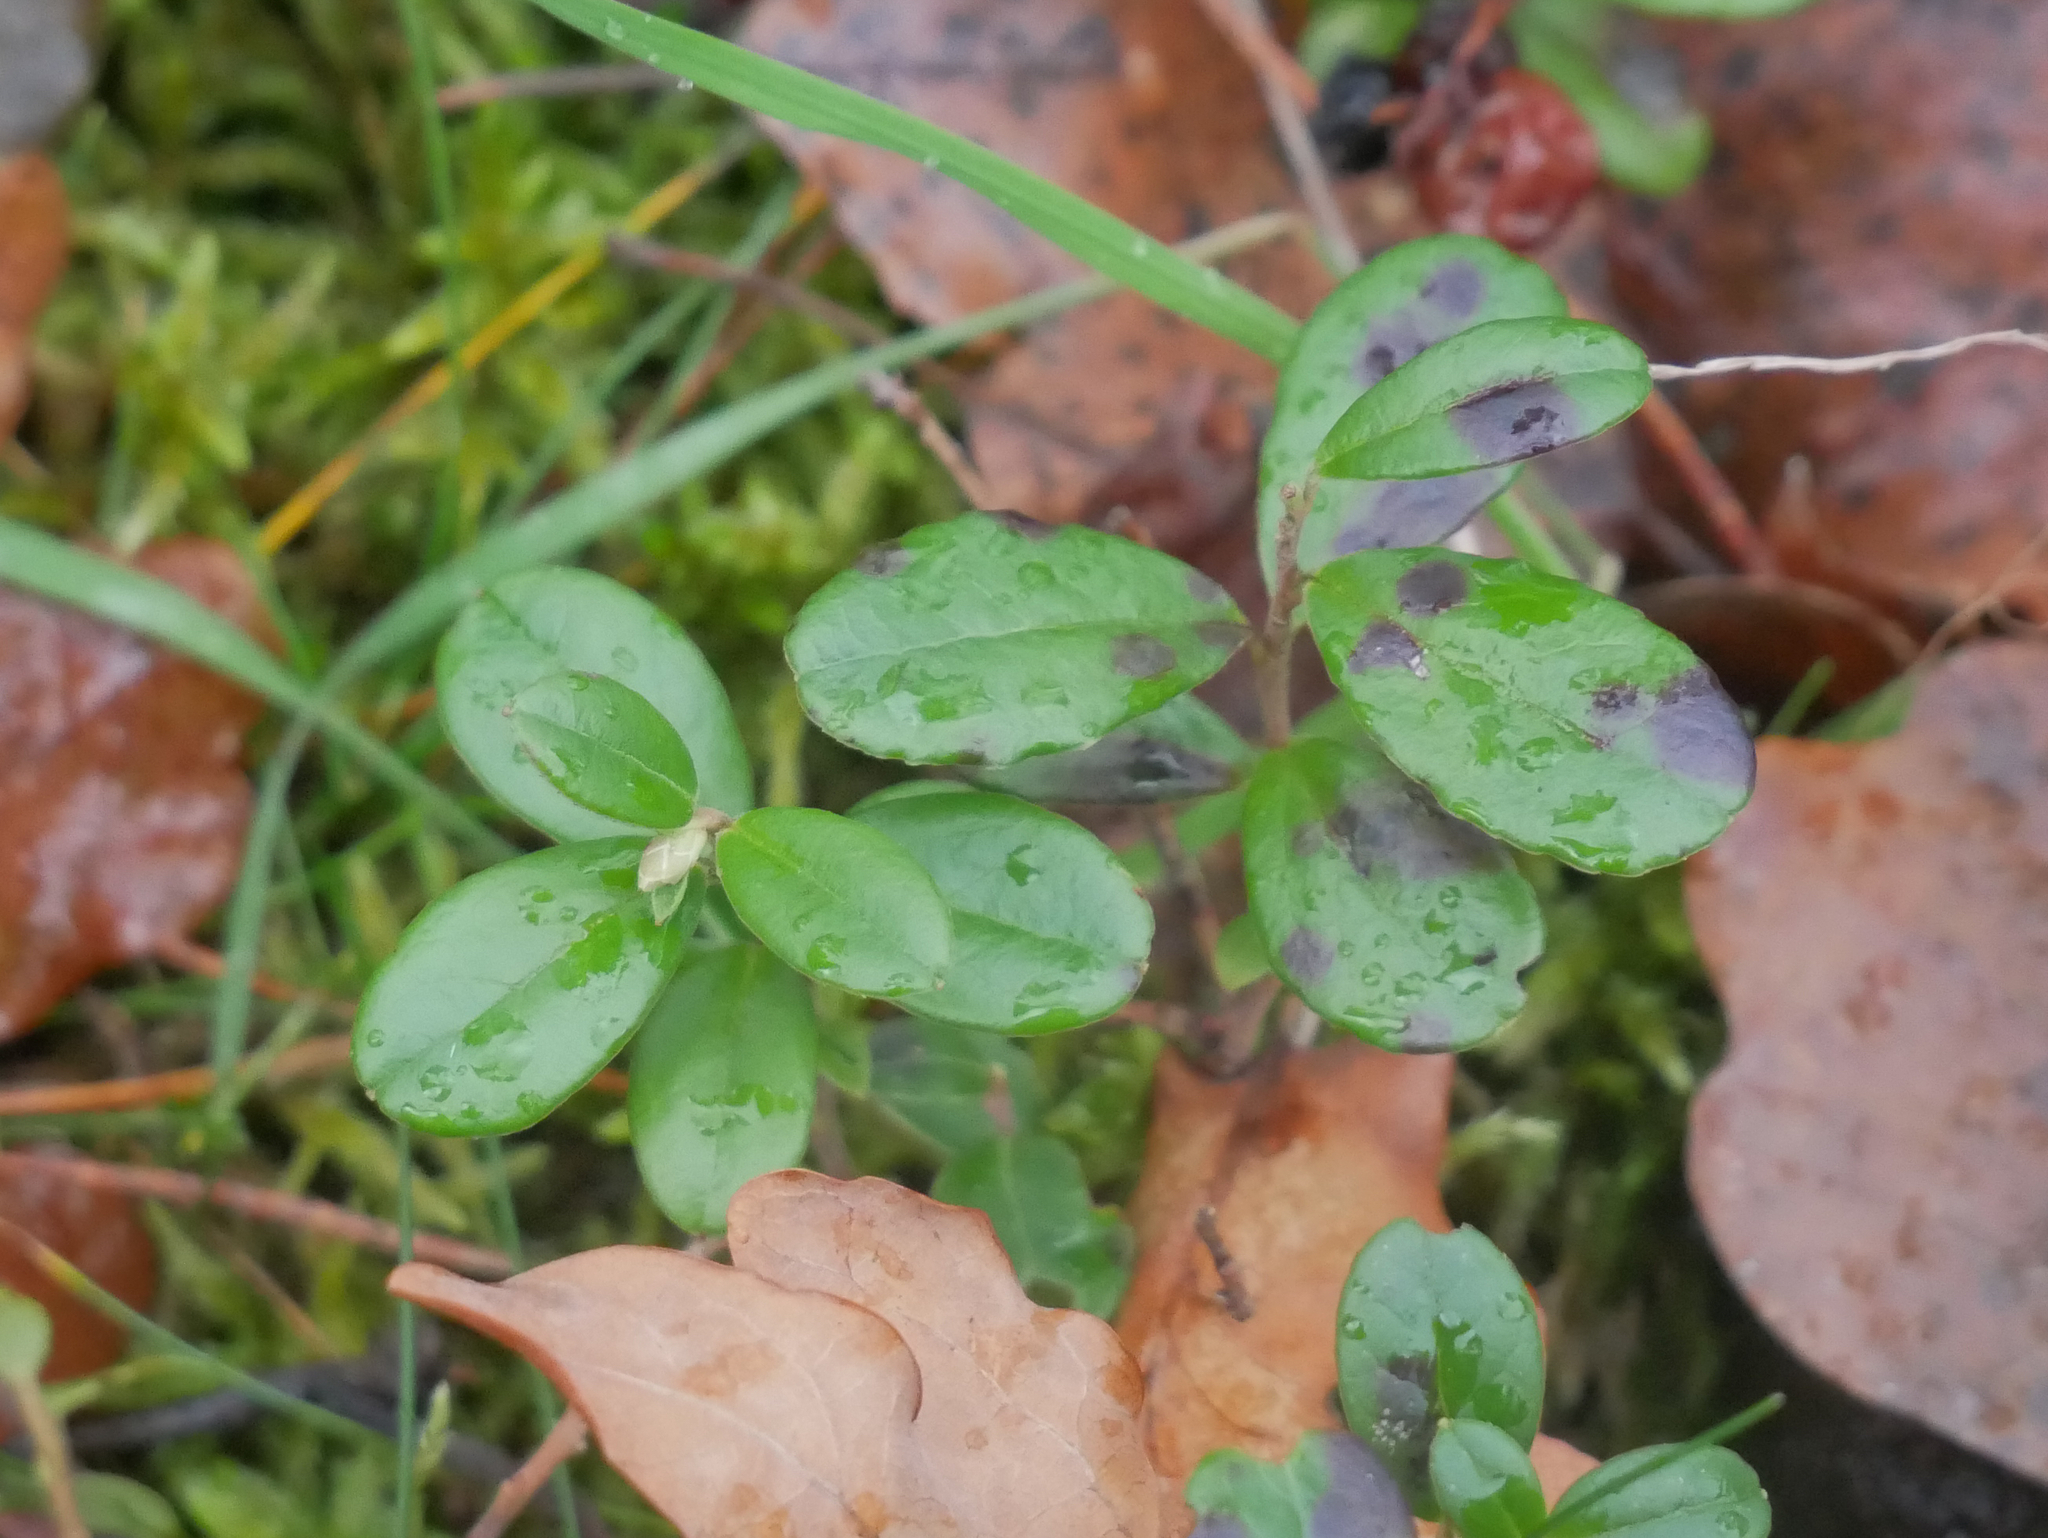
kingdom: Plantae
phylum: Tracheophyta
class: Magnoliopsida
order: Ericales
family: Ericaceae
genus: Vaccinium
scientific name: Vaccinium vitis-idaea
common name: Cowberry
